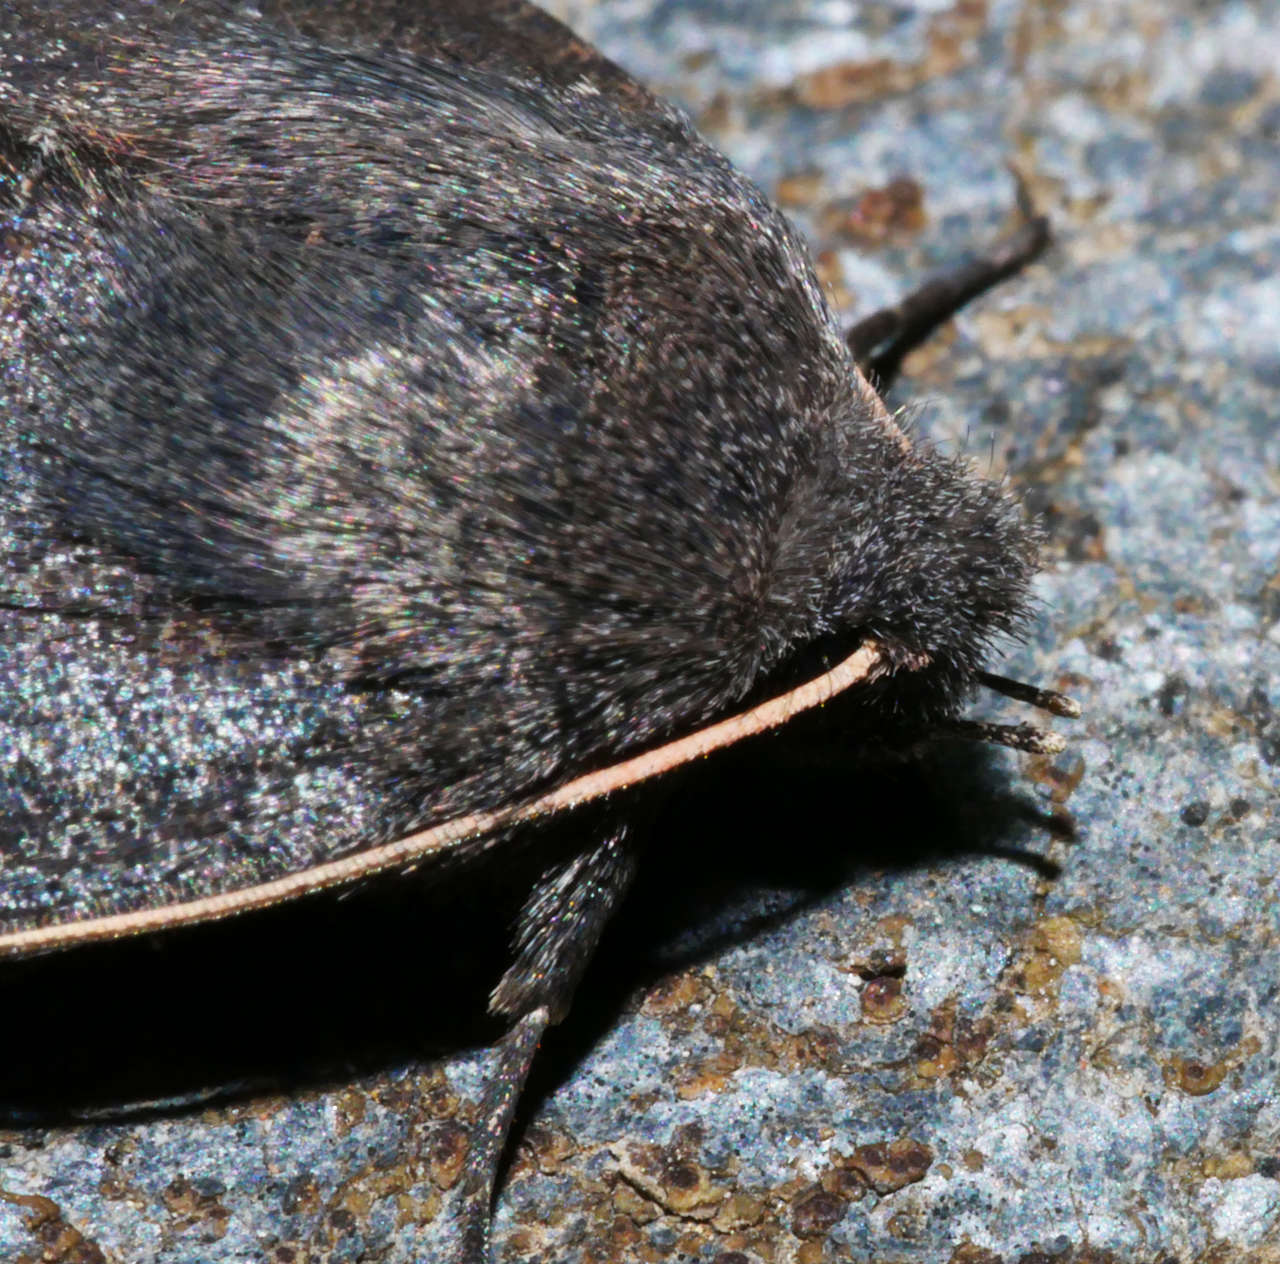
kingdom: Animalia
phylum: Arthropoda
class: Insecta
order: Lepidoptera
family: Erebidae
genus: Praxis
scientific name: Praxis pandesma
